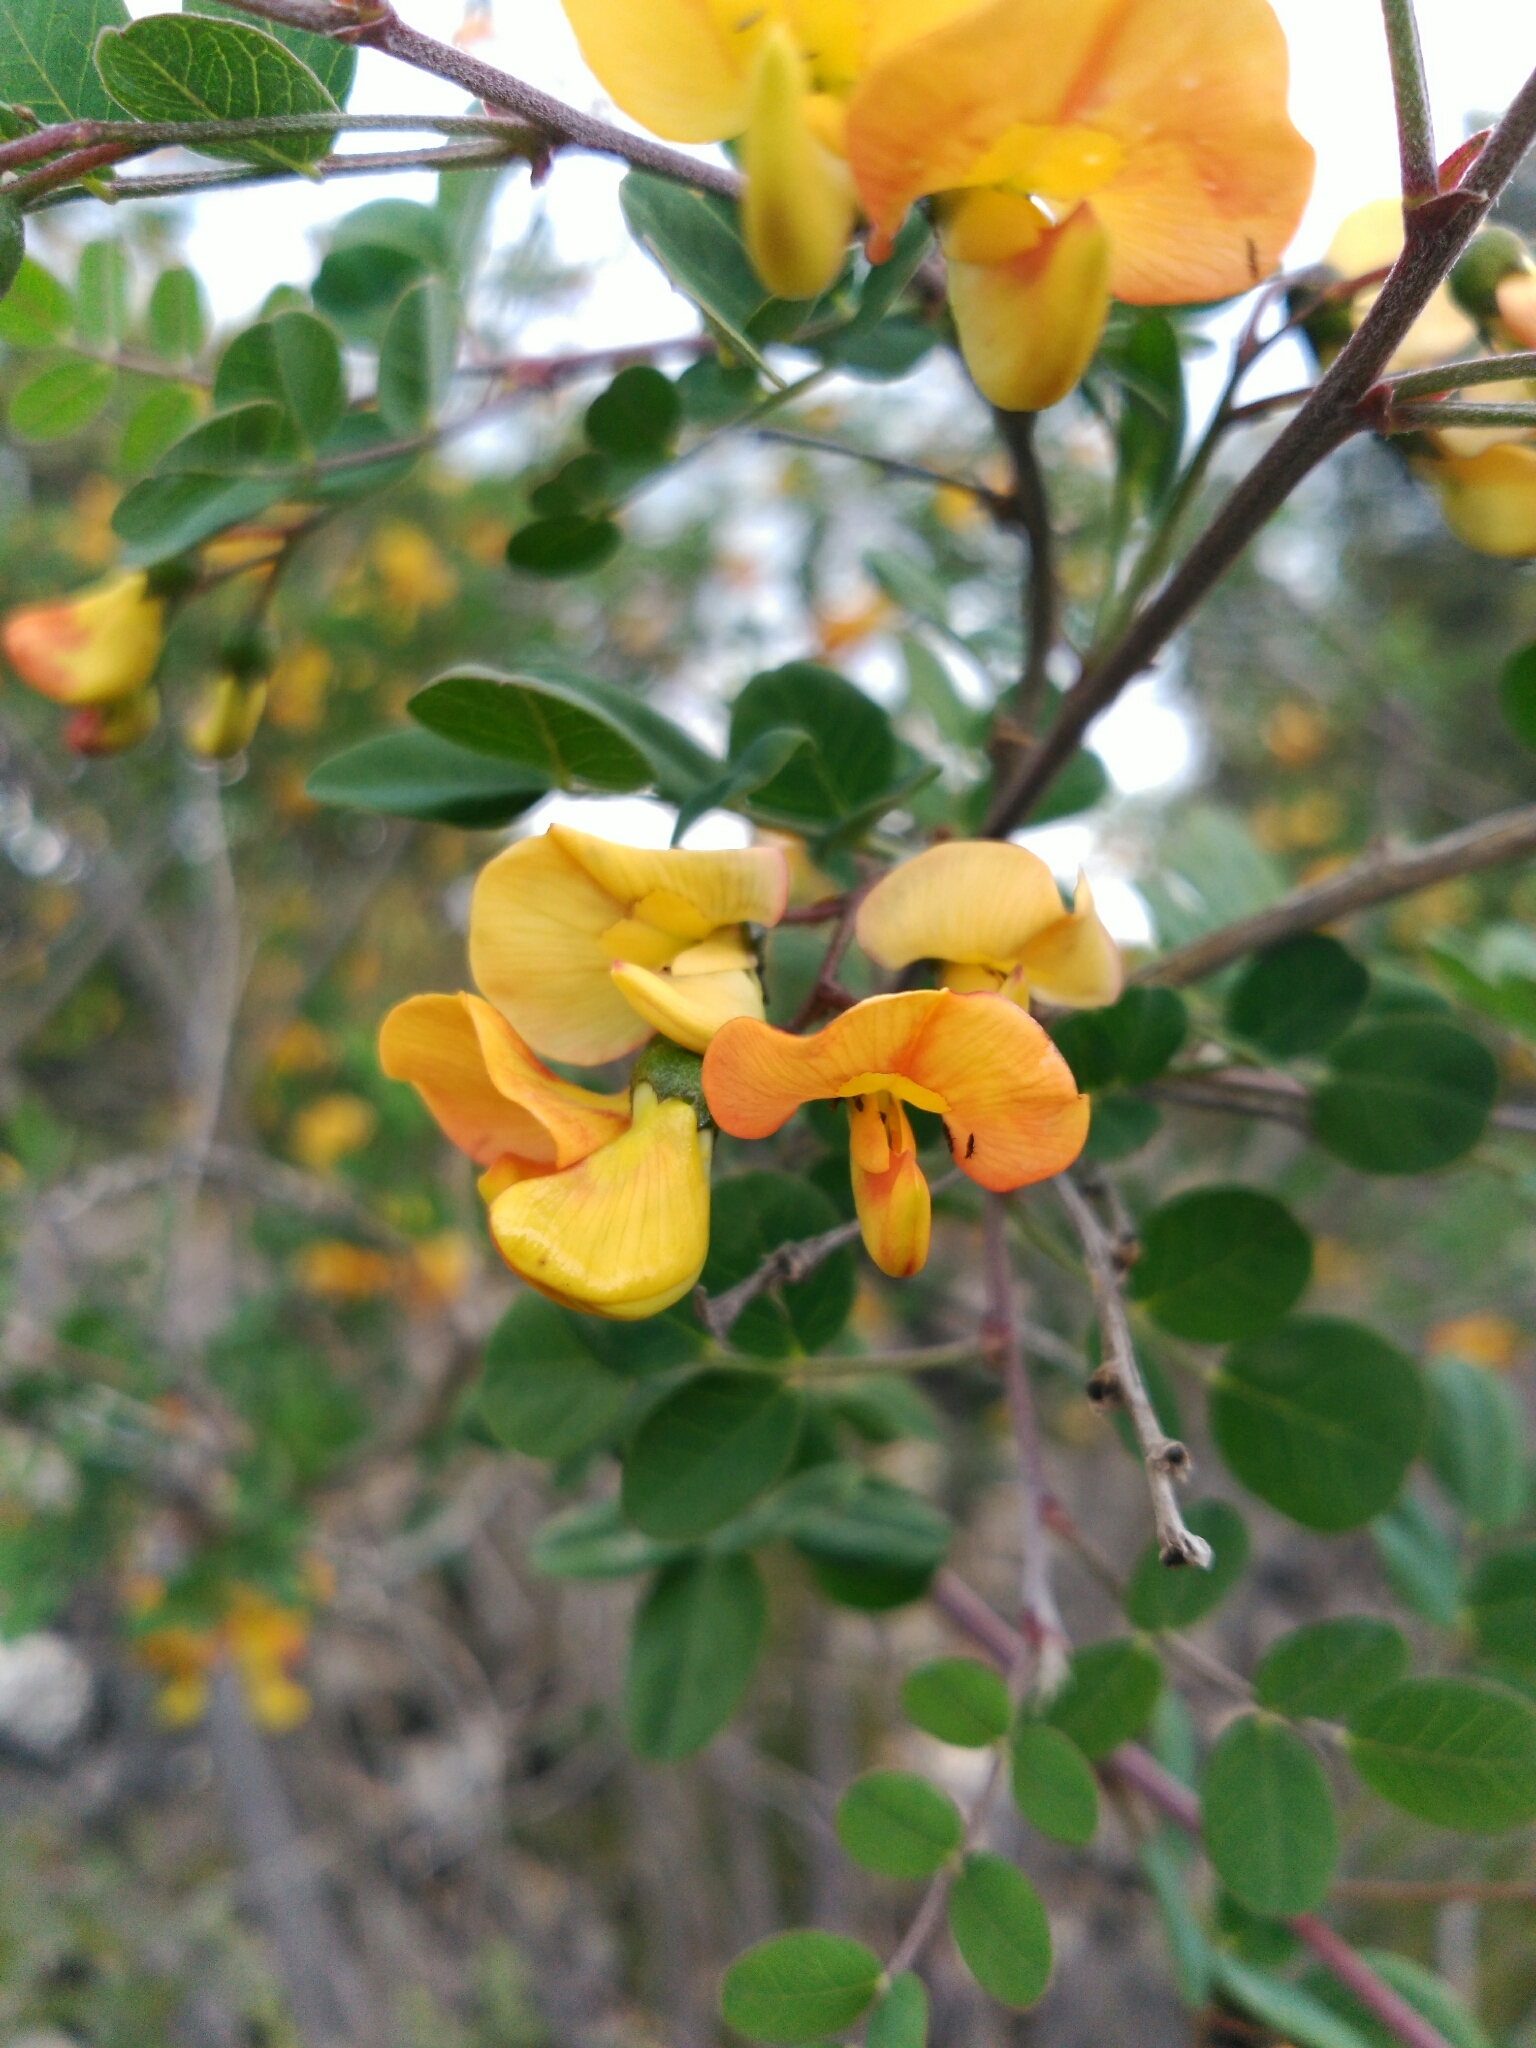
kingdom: Plantae
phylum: Tracheophyta
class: Magnoliopsida
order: Fabales
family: Fabaceae
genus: Colutea
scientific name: Colutea arborescens
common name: Bladder-senna
